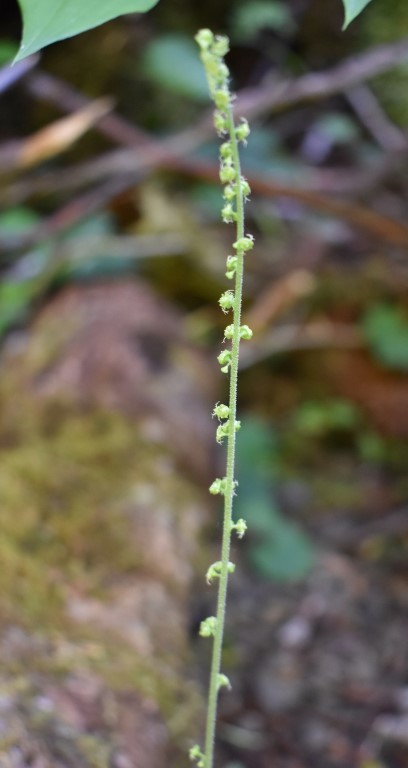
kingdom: Plantae
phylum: Tracheophyta
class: Magnoliopsida
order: Saxifragales
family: Saxifragaceae
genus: Brewerimitella
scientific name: Brewerimitella ovalis
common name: Coastal bishop's-cap
